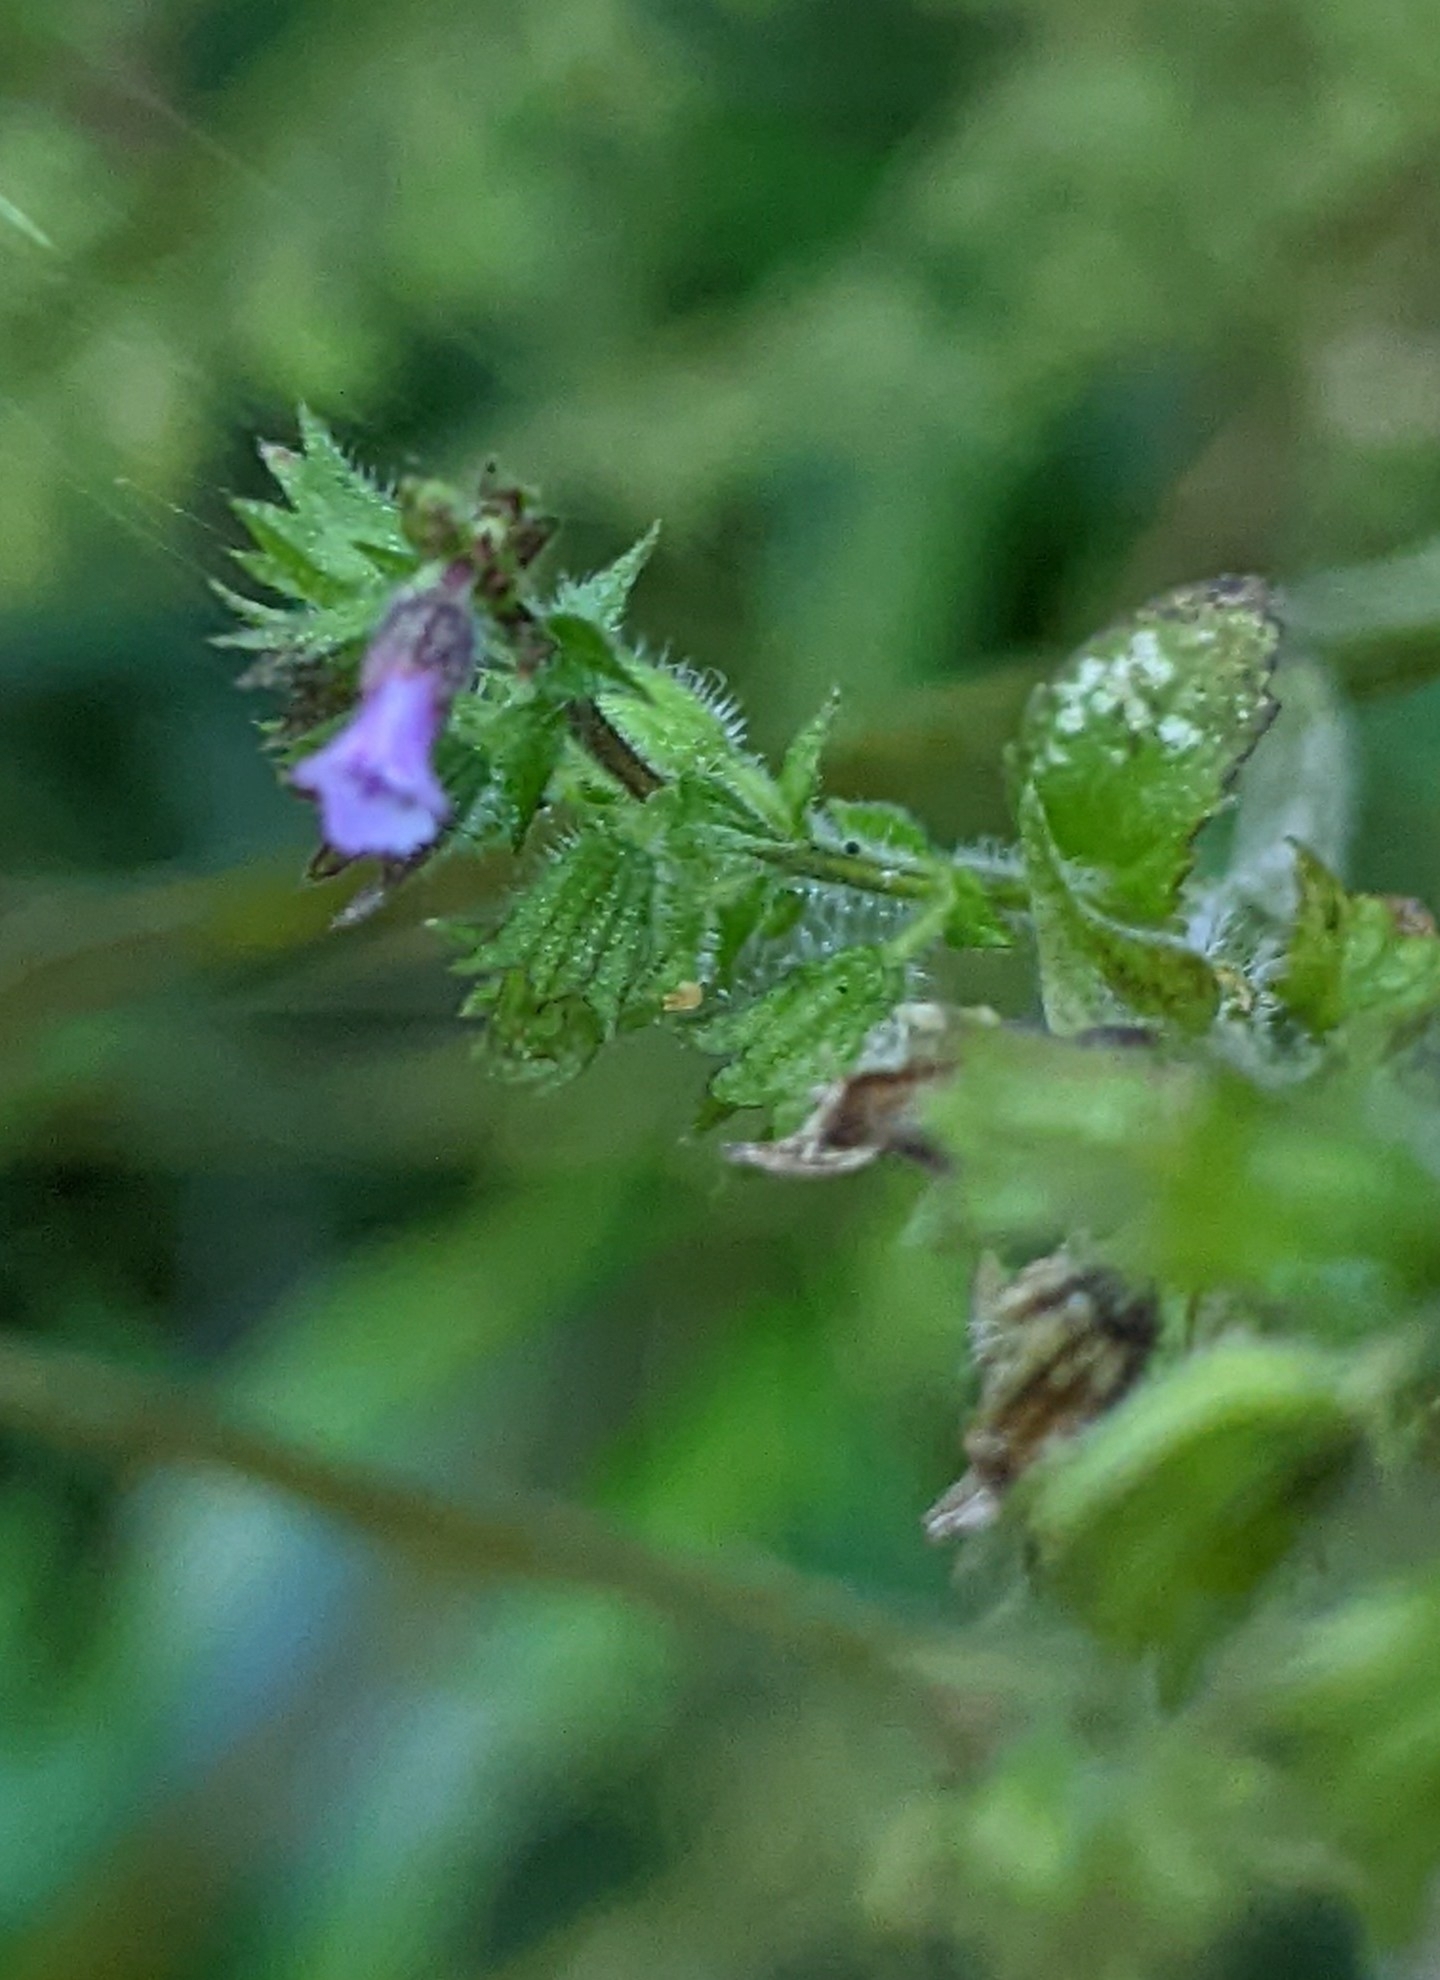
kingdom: Plantae
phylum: Tracheophyta
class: Magnoliopsida
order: Lamiales
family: Lamiaceae
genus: Mosla
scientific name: Mosla scabra
